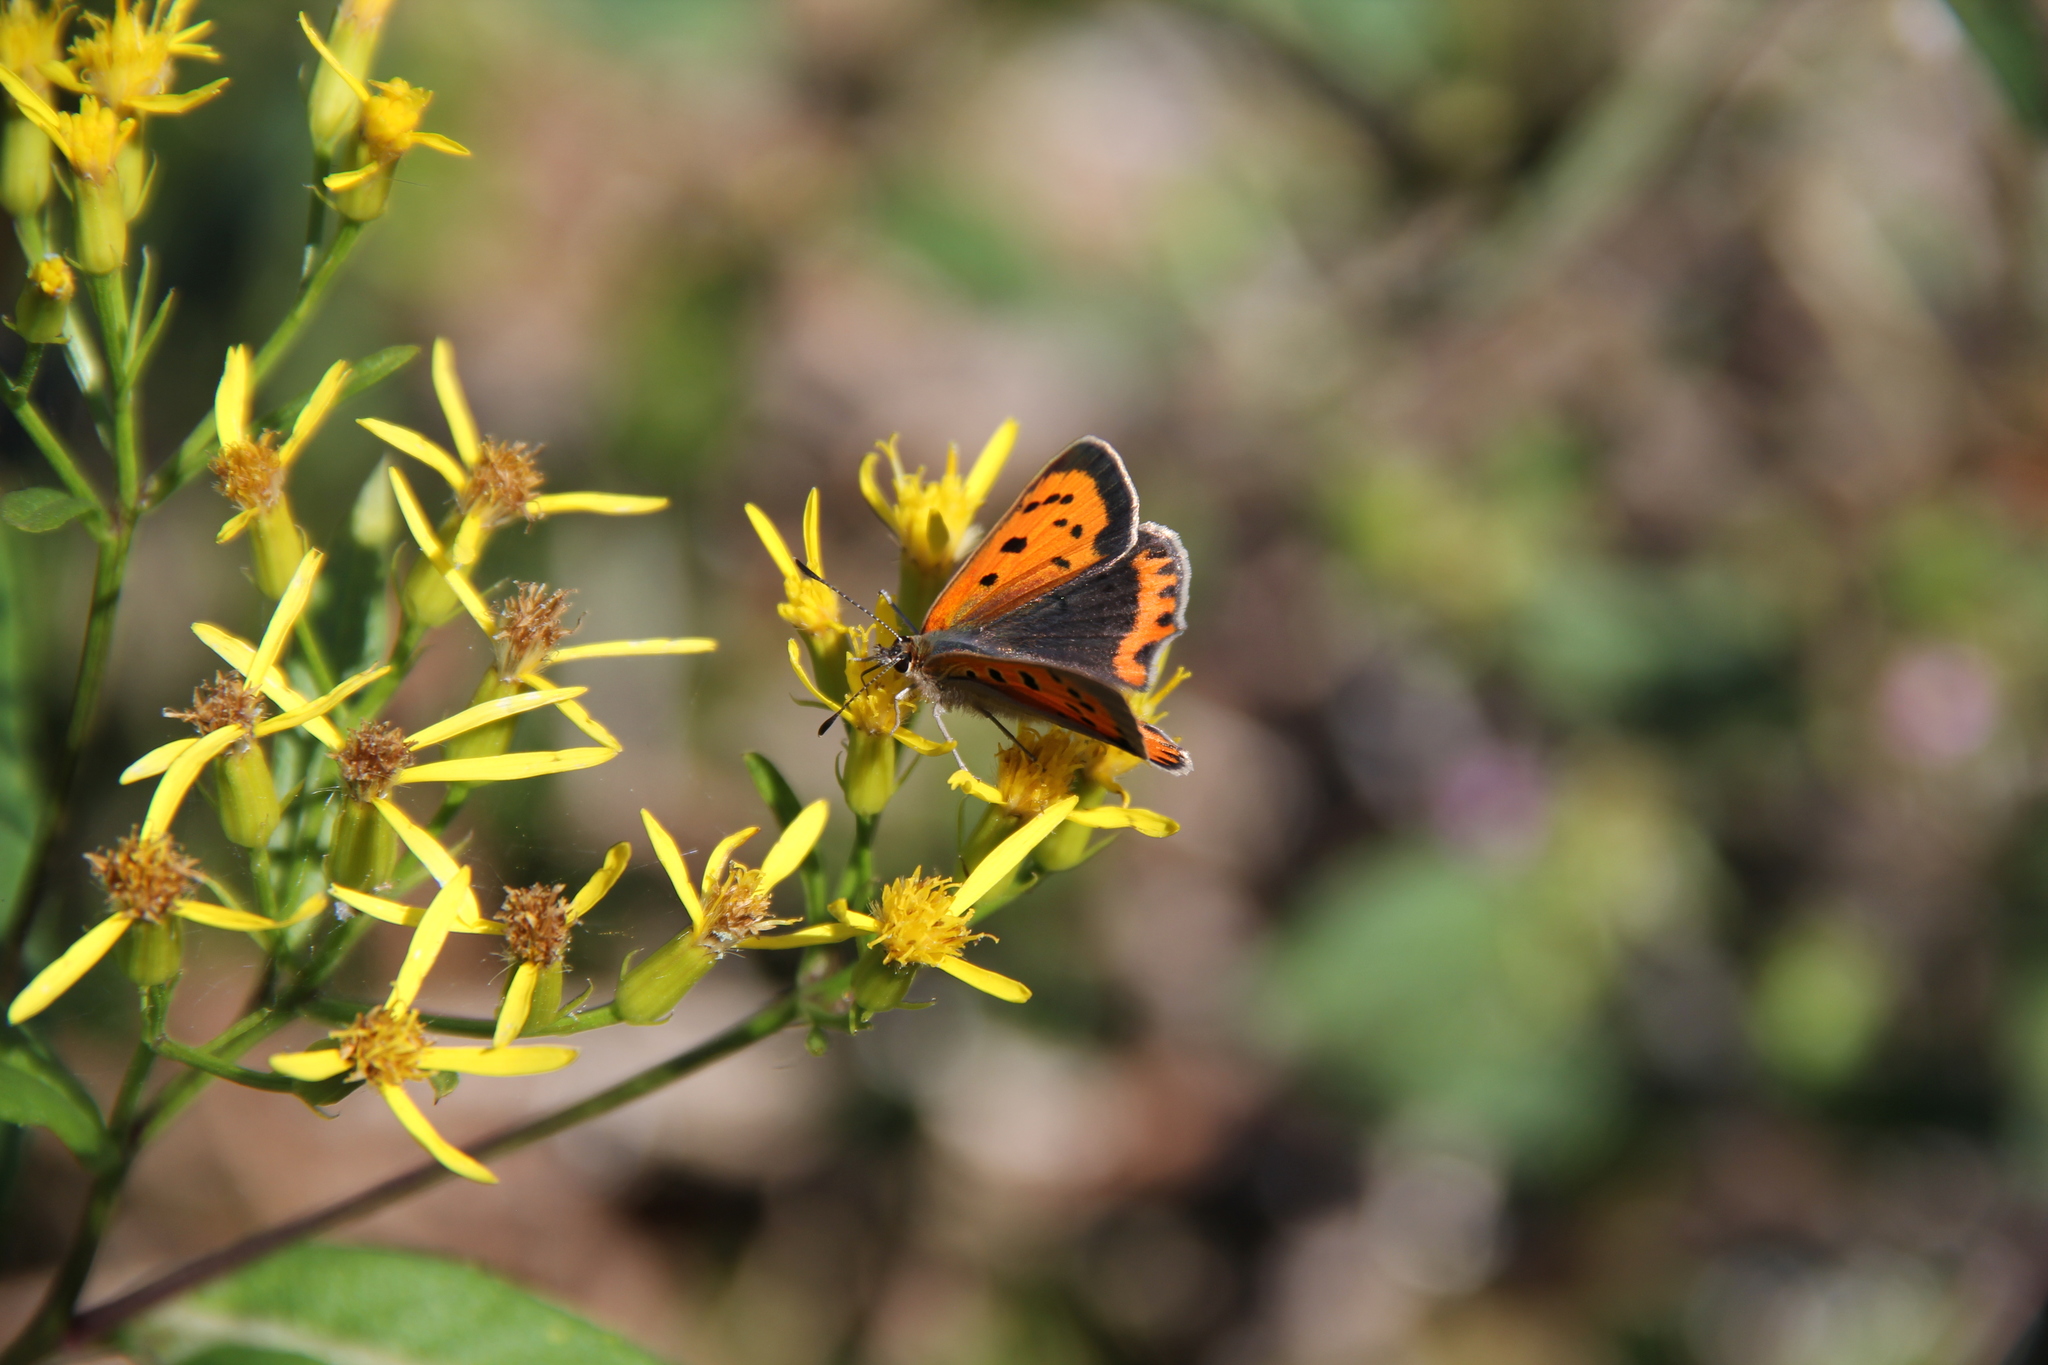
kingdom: Animalia
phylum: Arthropoda
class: Insecta
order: Lepidoptera
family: Lycaenidae
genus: Lycaena
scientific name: Lycaena phlaeas
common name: Small copper
